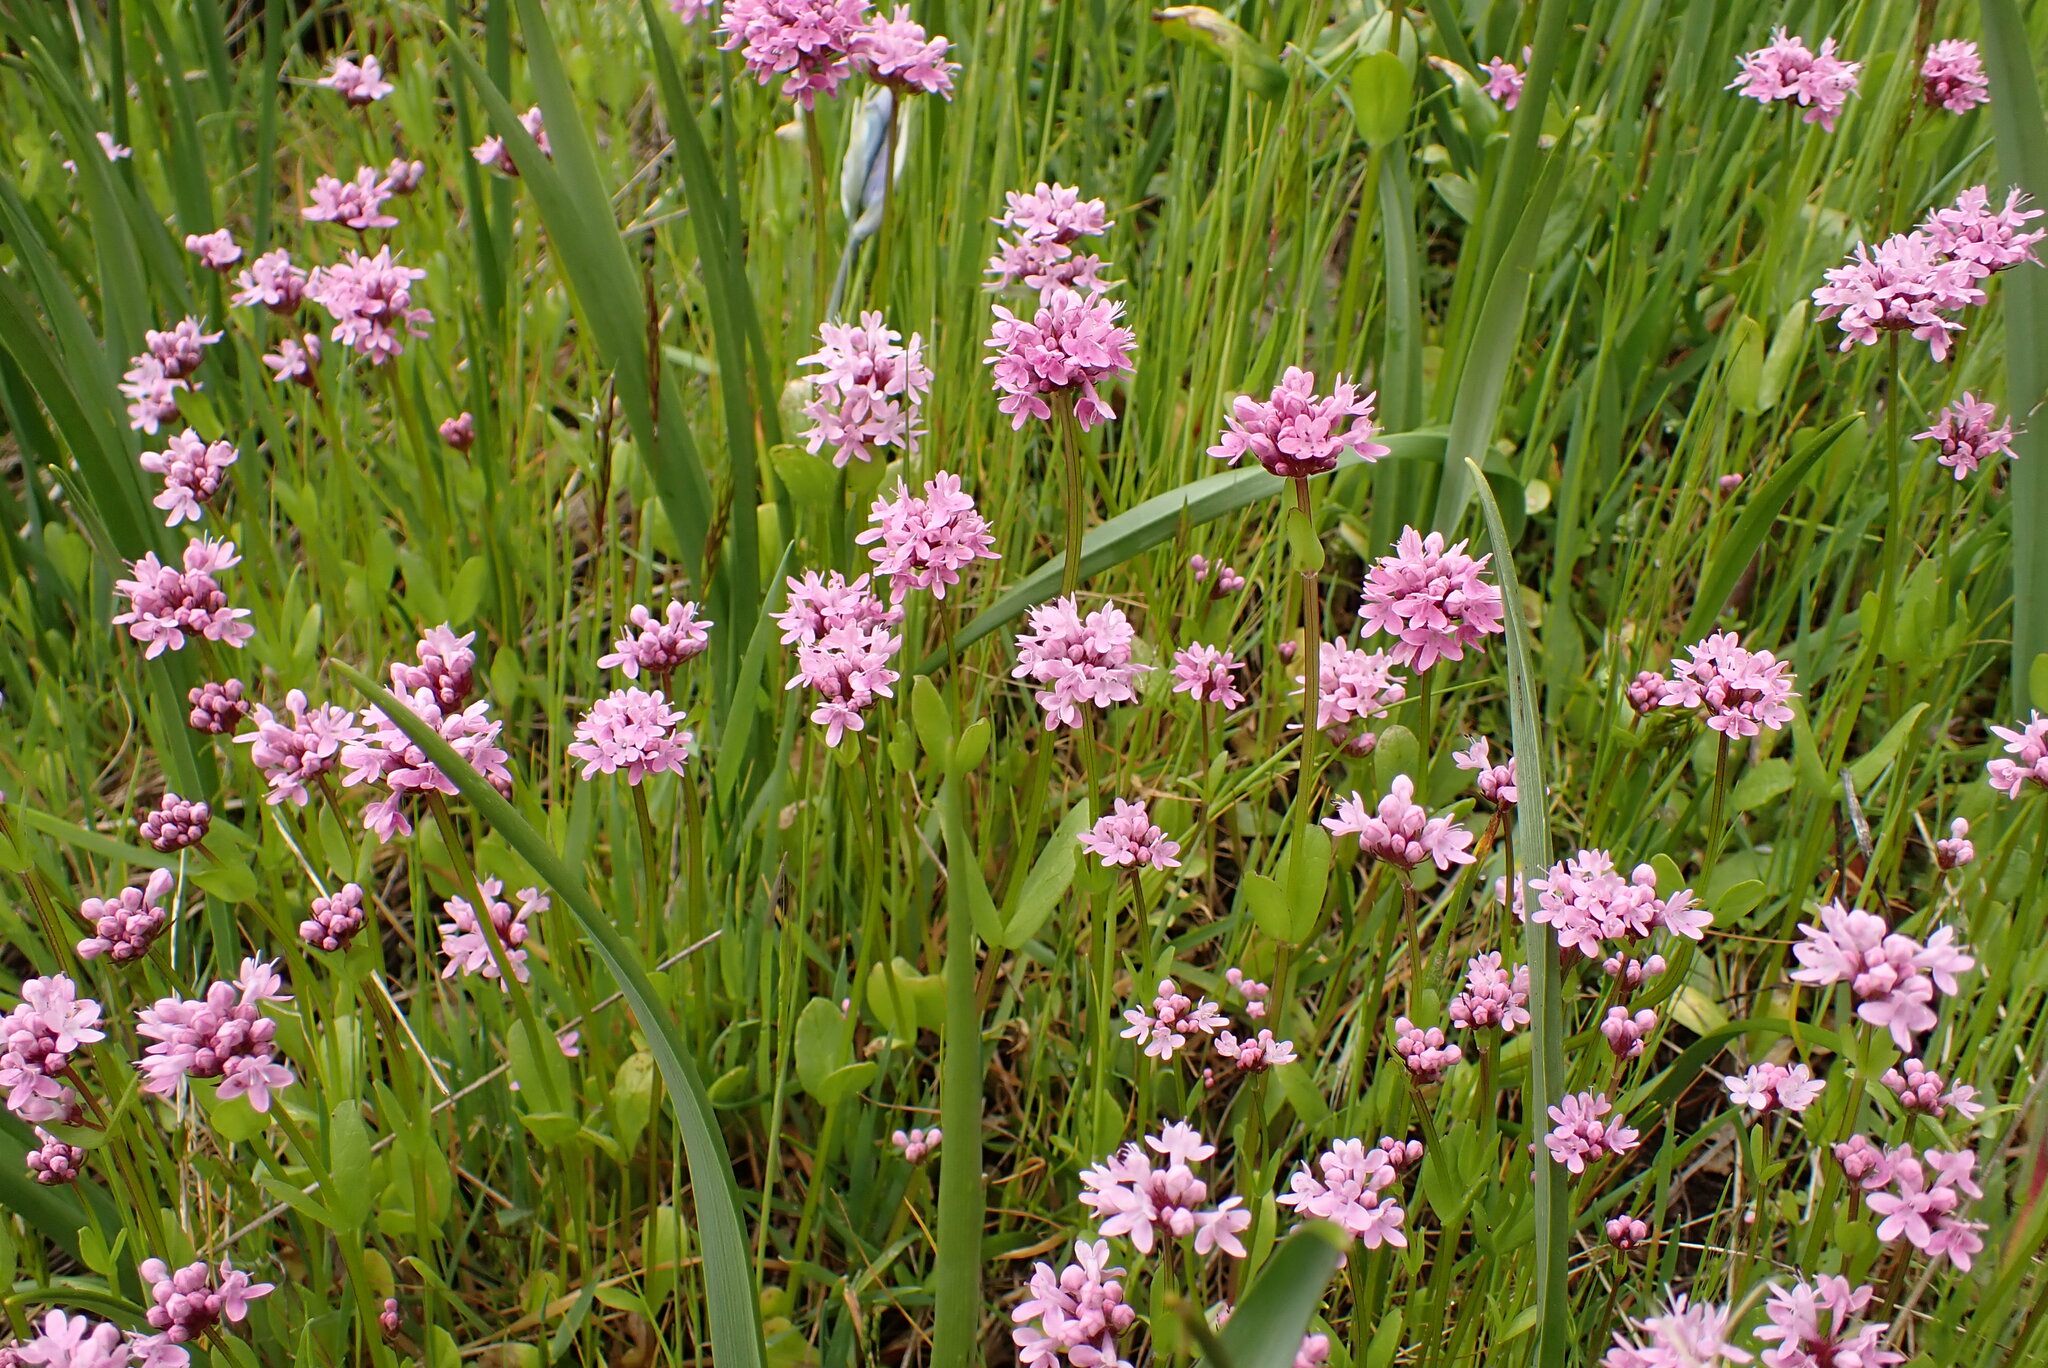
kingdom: Plantae
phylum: Tracheophyta
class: Magnoliopsida
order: Dipsacales
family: Caprifoliaceae
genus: Plectritis
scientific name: Plectritis congesta
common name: Pink plectritis
